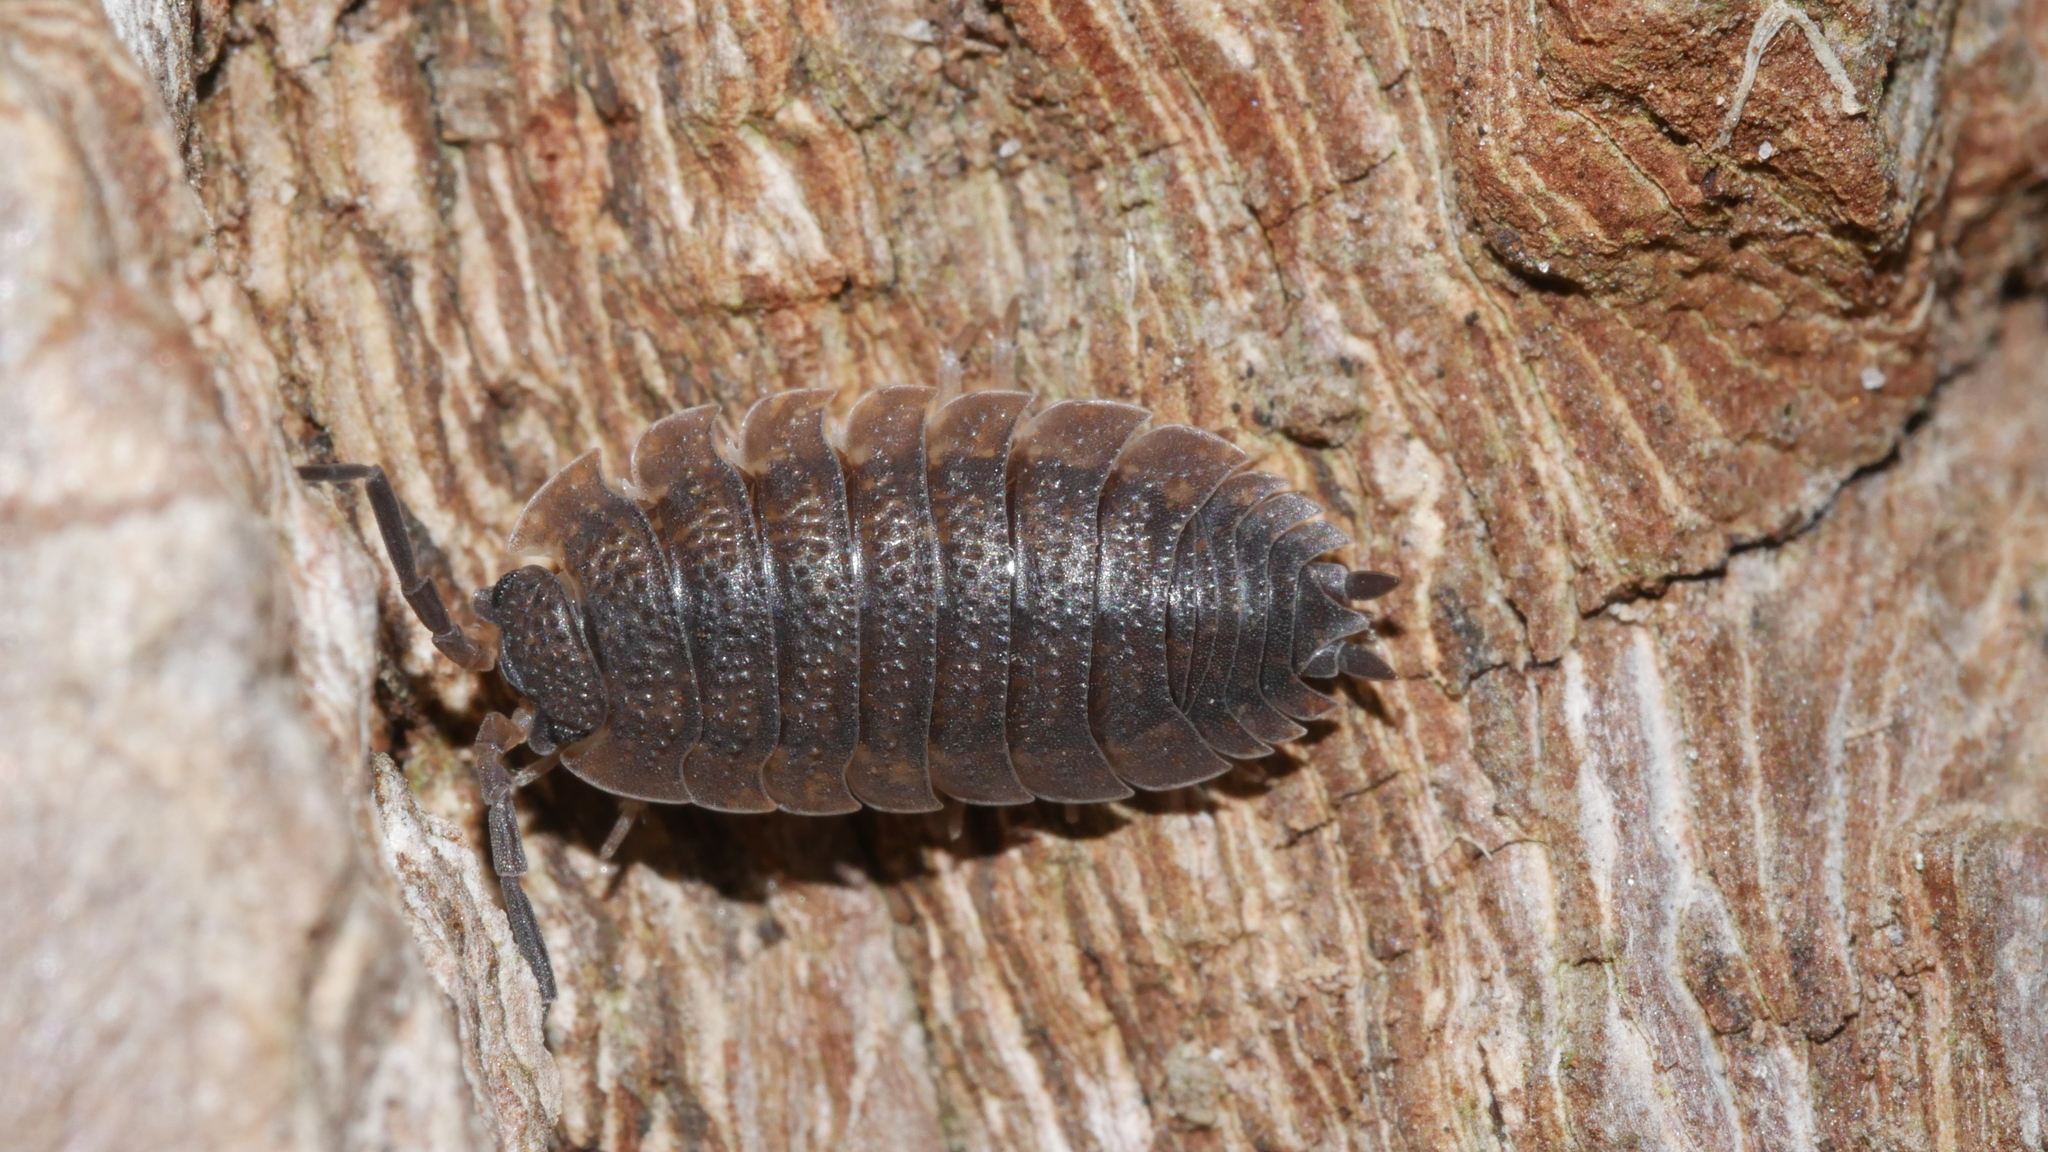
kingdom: Animalia
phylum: Arthropoda
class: Malacostraca
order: Isopoda
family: Porcellionidae
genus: Porcellio
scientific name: Porcellio scaber
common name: Common rough woodlouse
